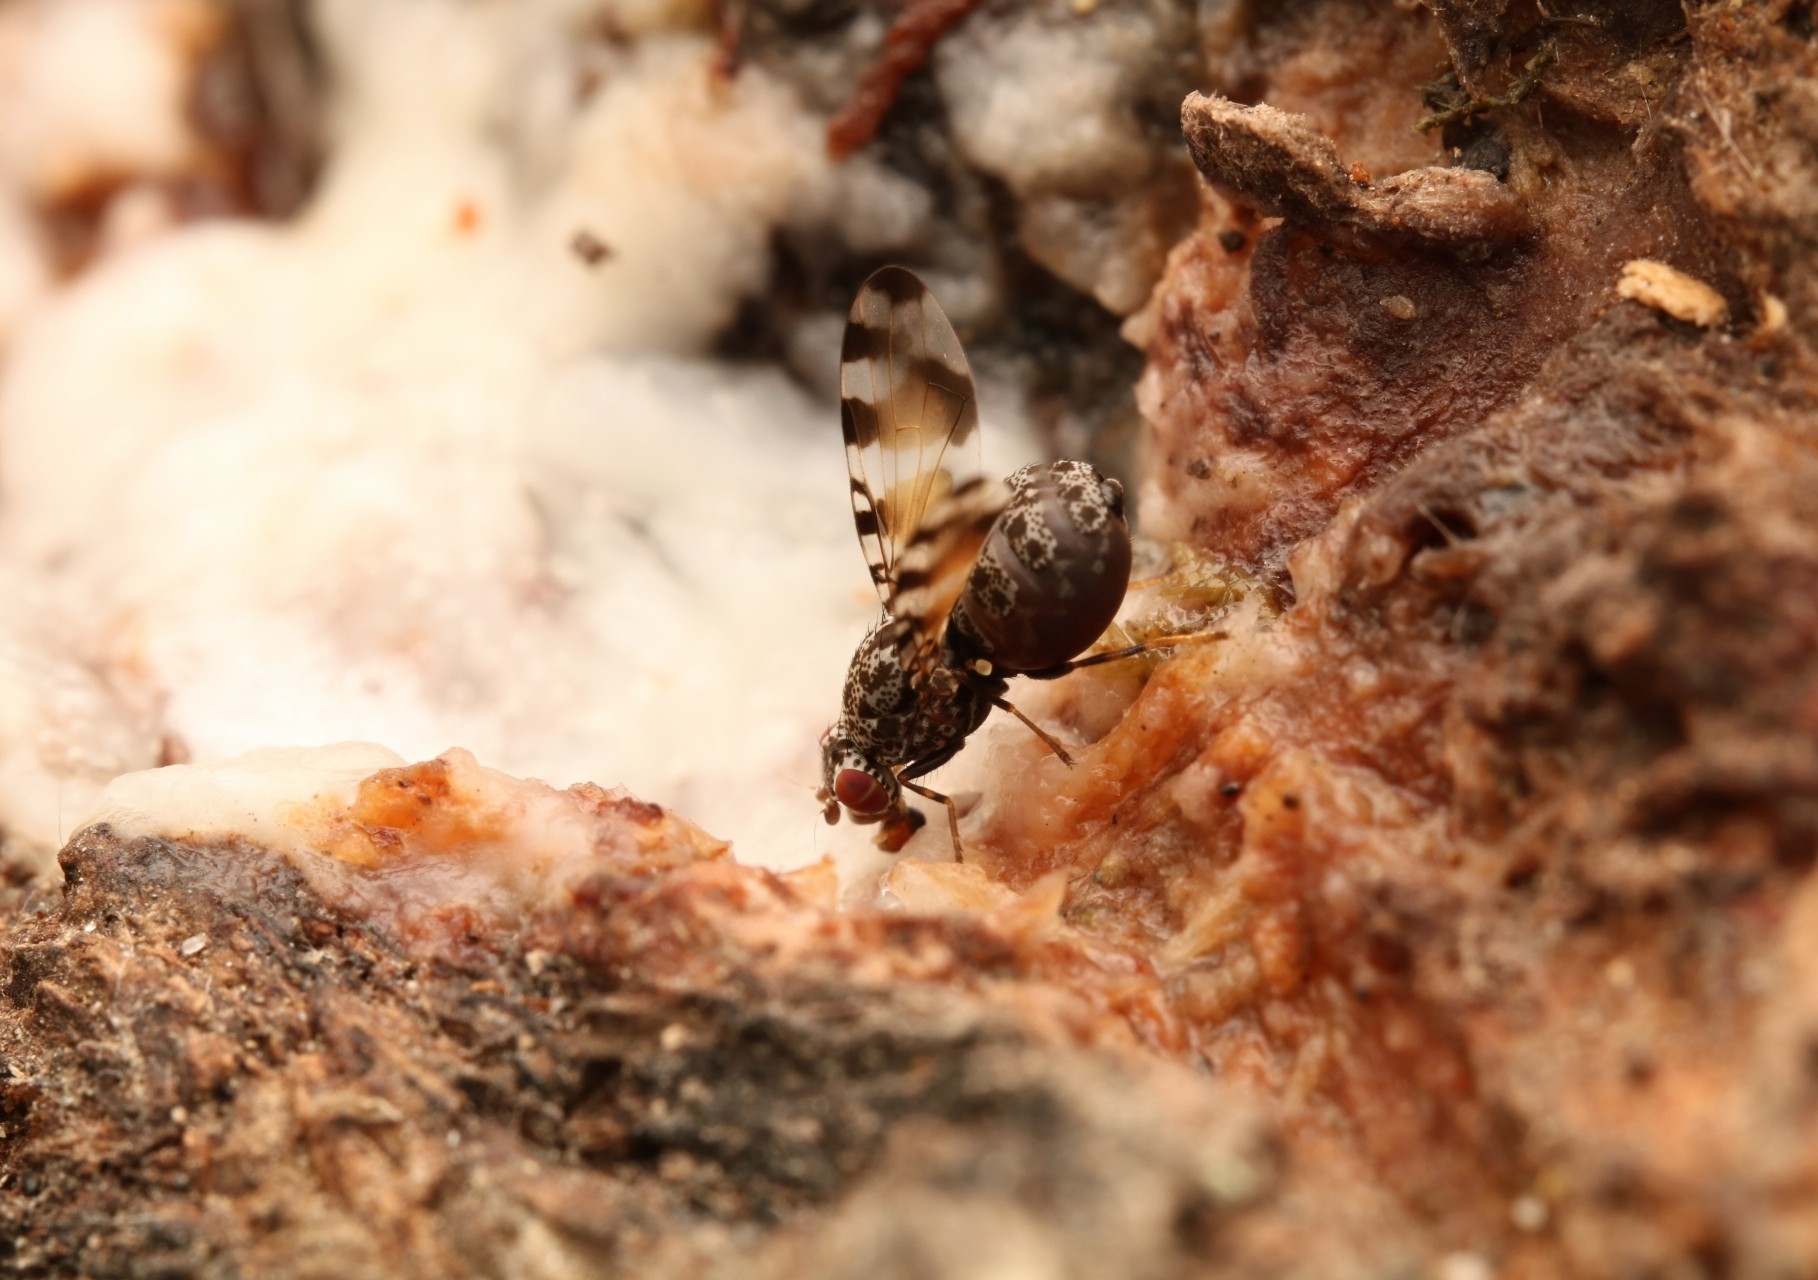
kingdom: Animalia
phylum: Arthropoda
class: Insecta
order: Diptera
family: Ulidiidae
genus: Pseudotephritis
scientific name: Pseudotephritis vau
